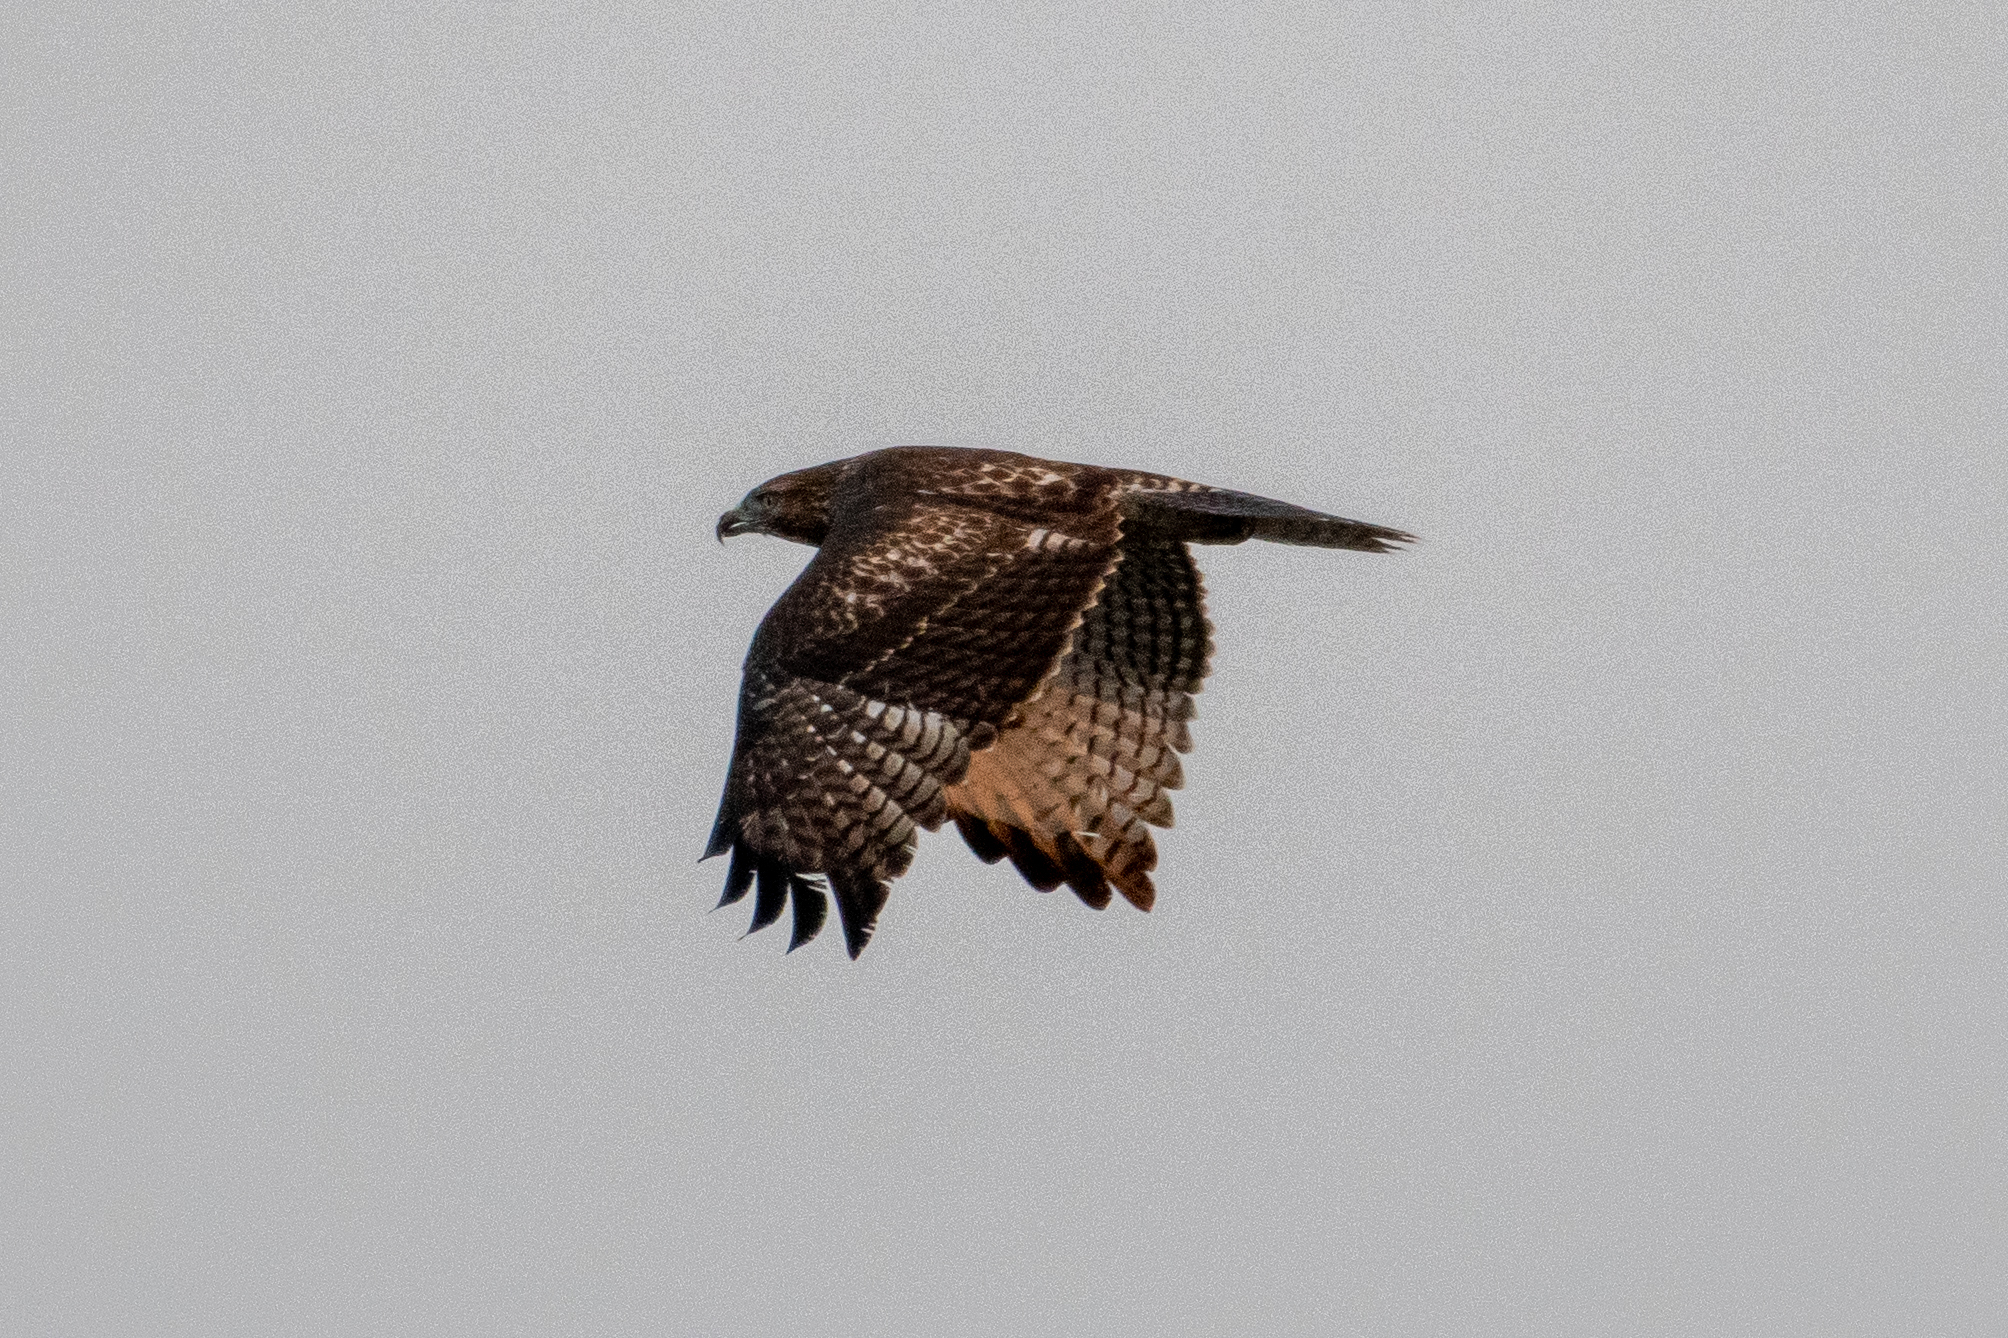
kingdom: Animalia
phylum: Chordata
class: Aves
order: Accipitriformes
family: Accipitridae
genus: Buteo
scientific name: Buteo jamaicensis
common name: Red-tailed hawk
